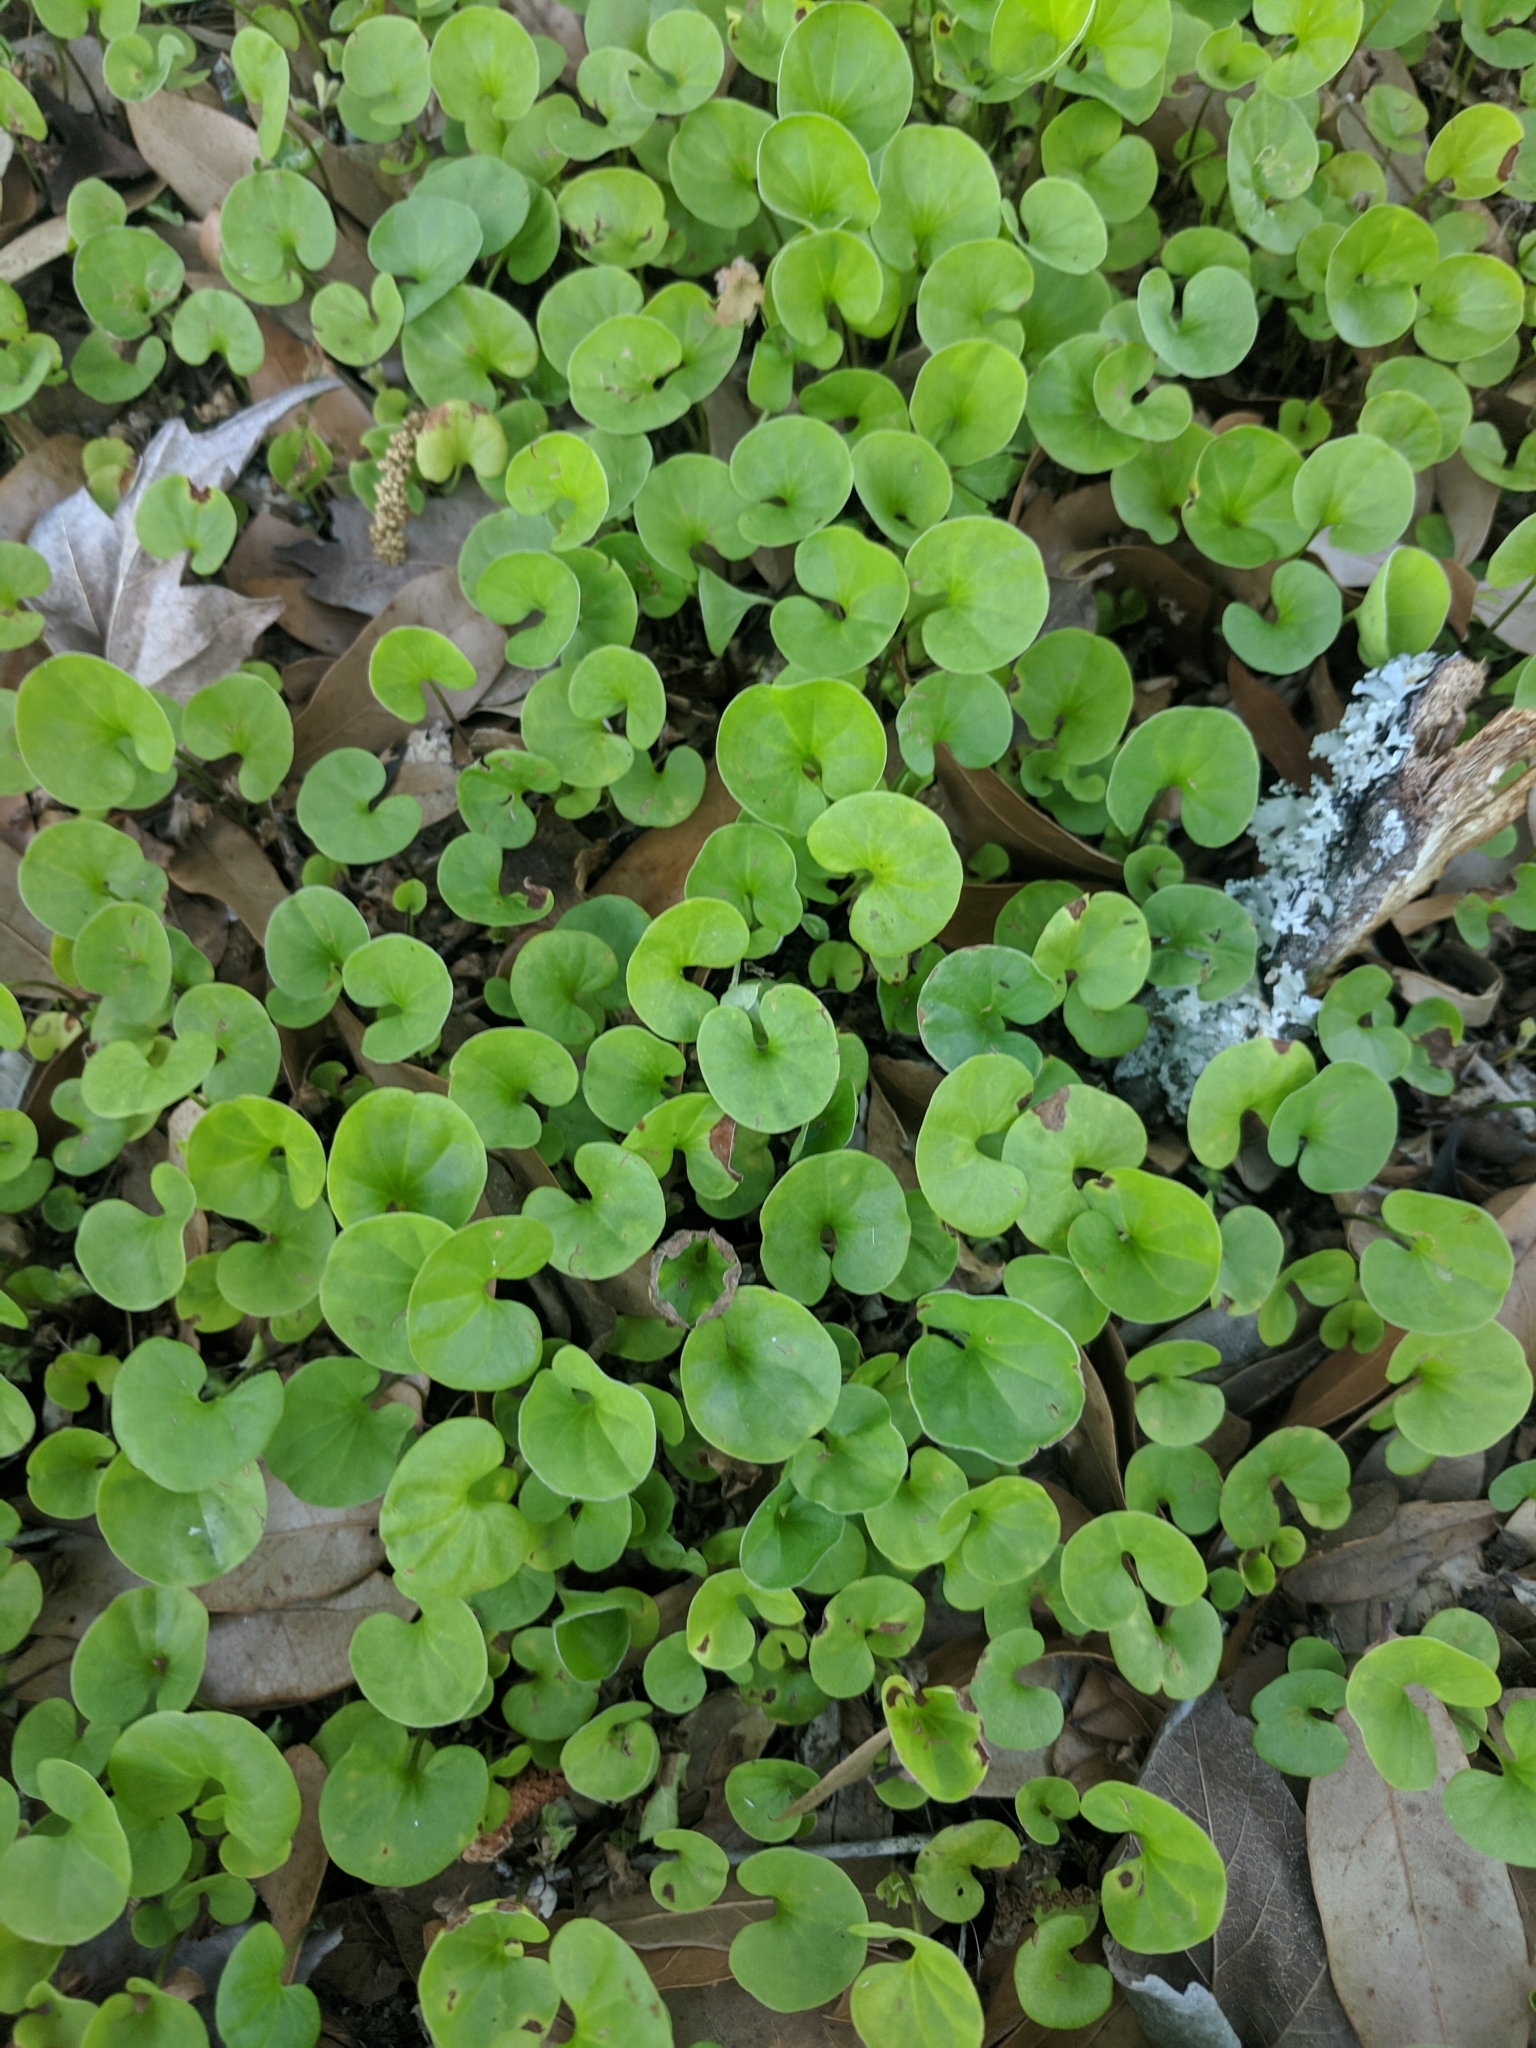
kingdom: Plantae
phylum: Tracheophyta
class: Magnoliopsida
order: Solanales
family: Convolvulaceae
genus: Dichondra
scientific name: Dichondra carolinensis
